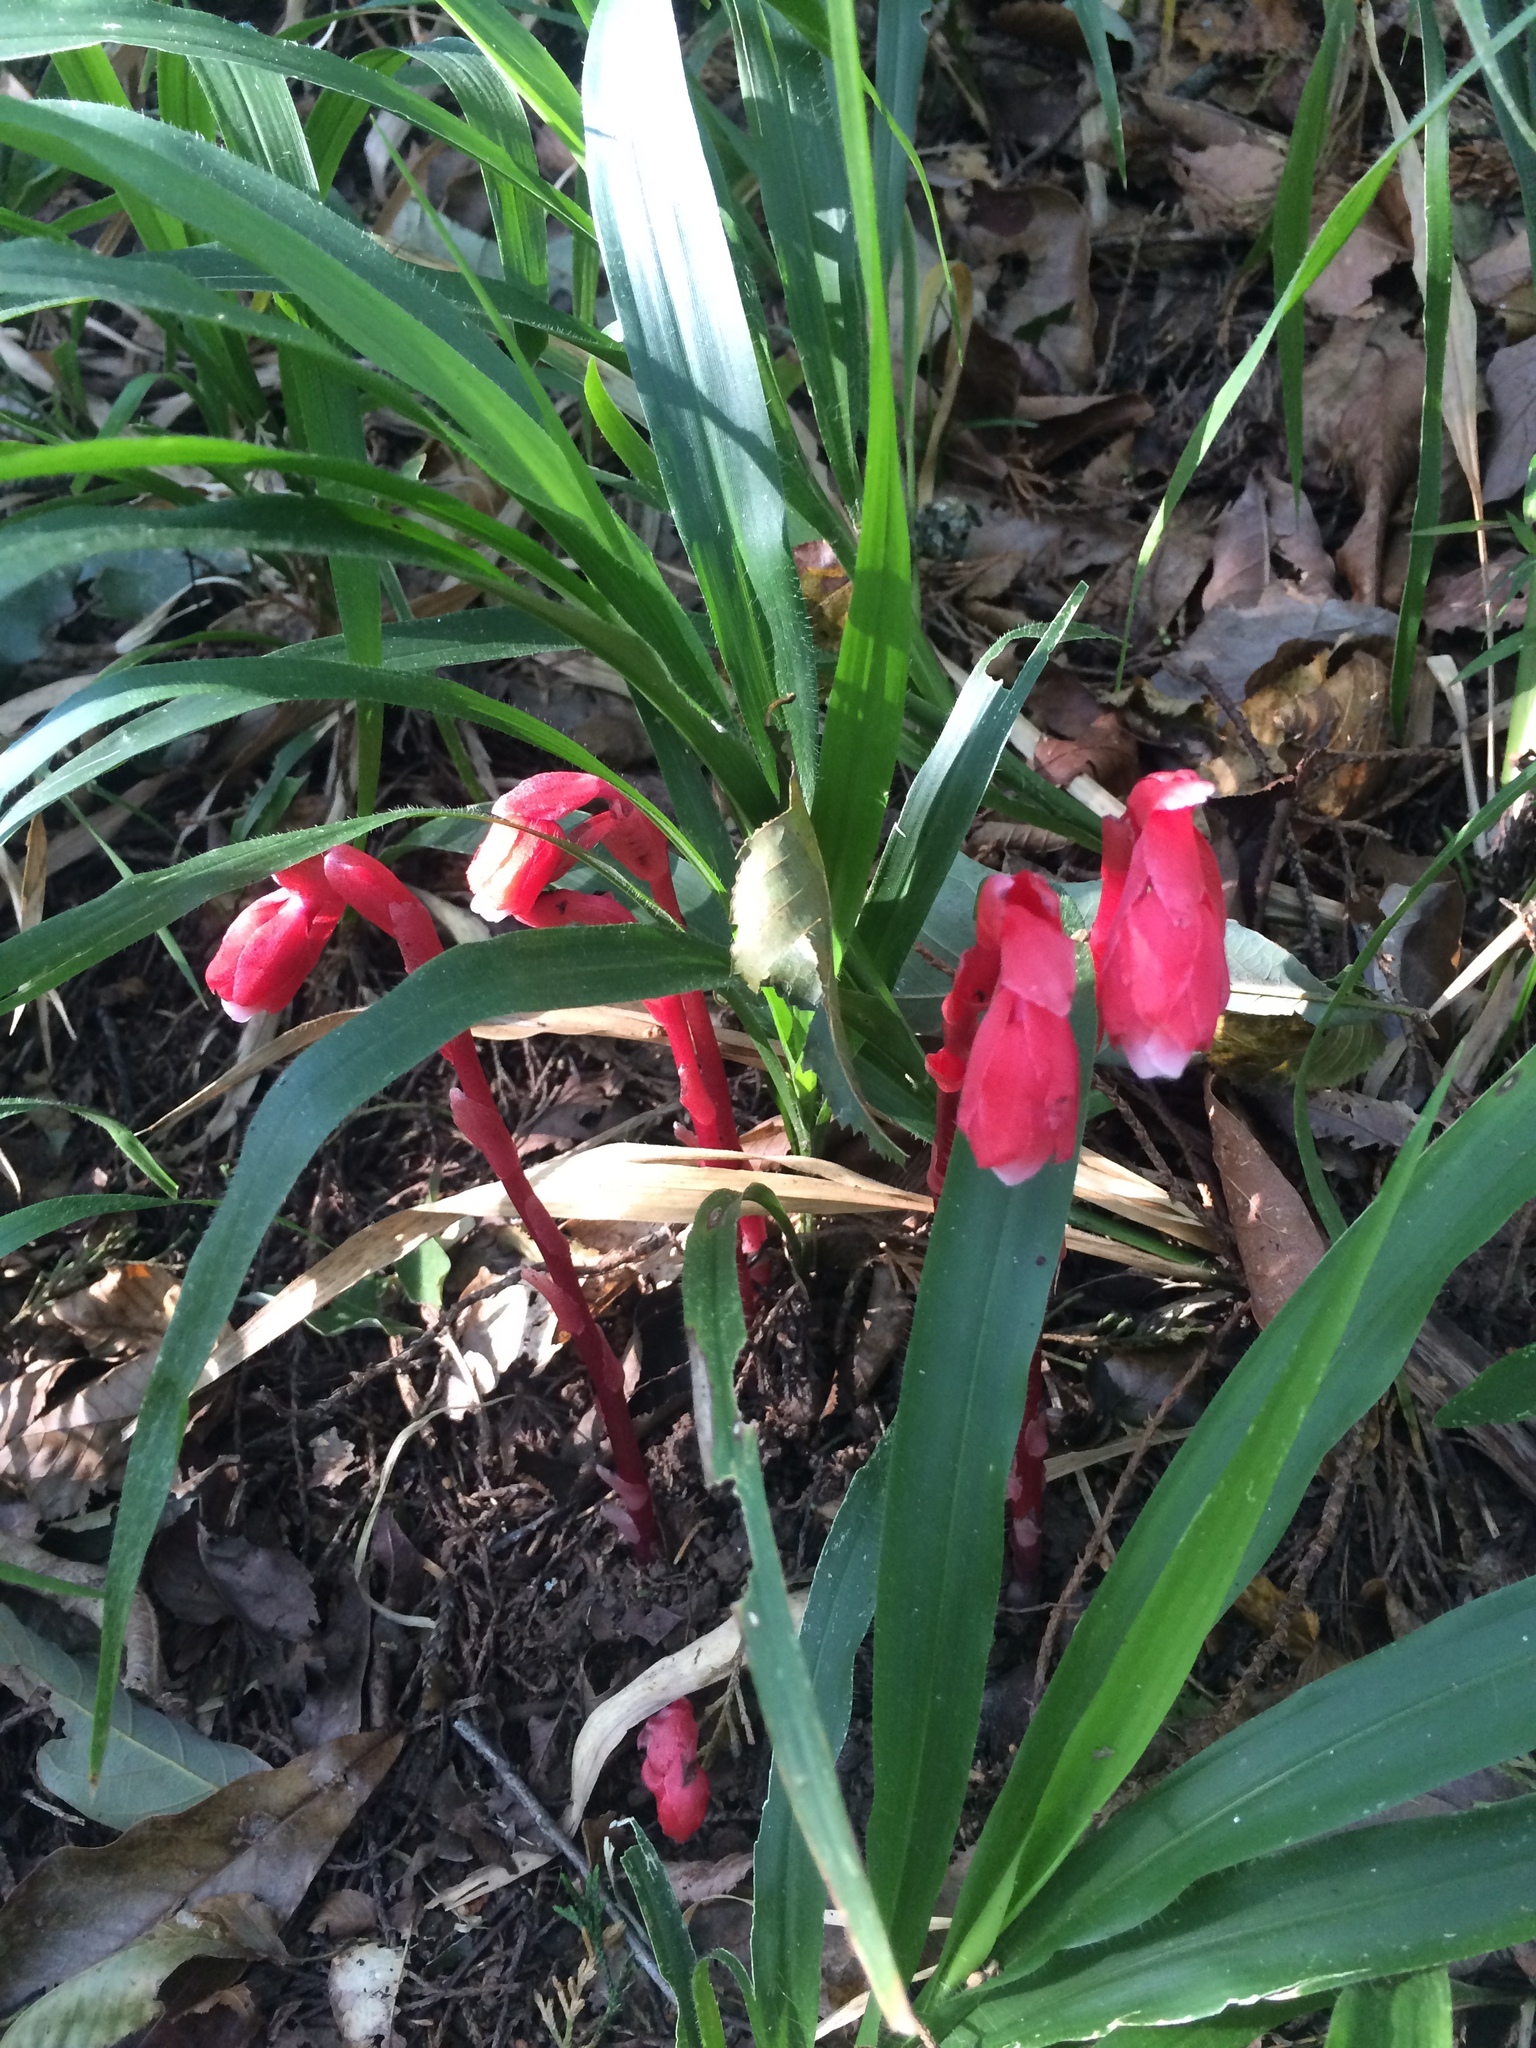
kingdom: Plantae
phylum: Tracheophyta
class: Magnoliopsida
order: Ericales
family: Ericaceae
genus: Monotropa
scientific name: Monotropa coccinea
